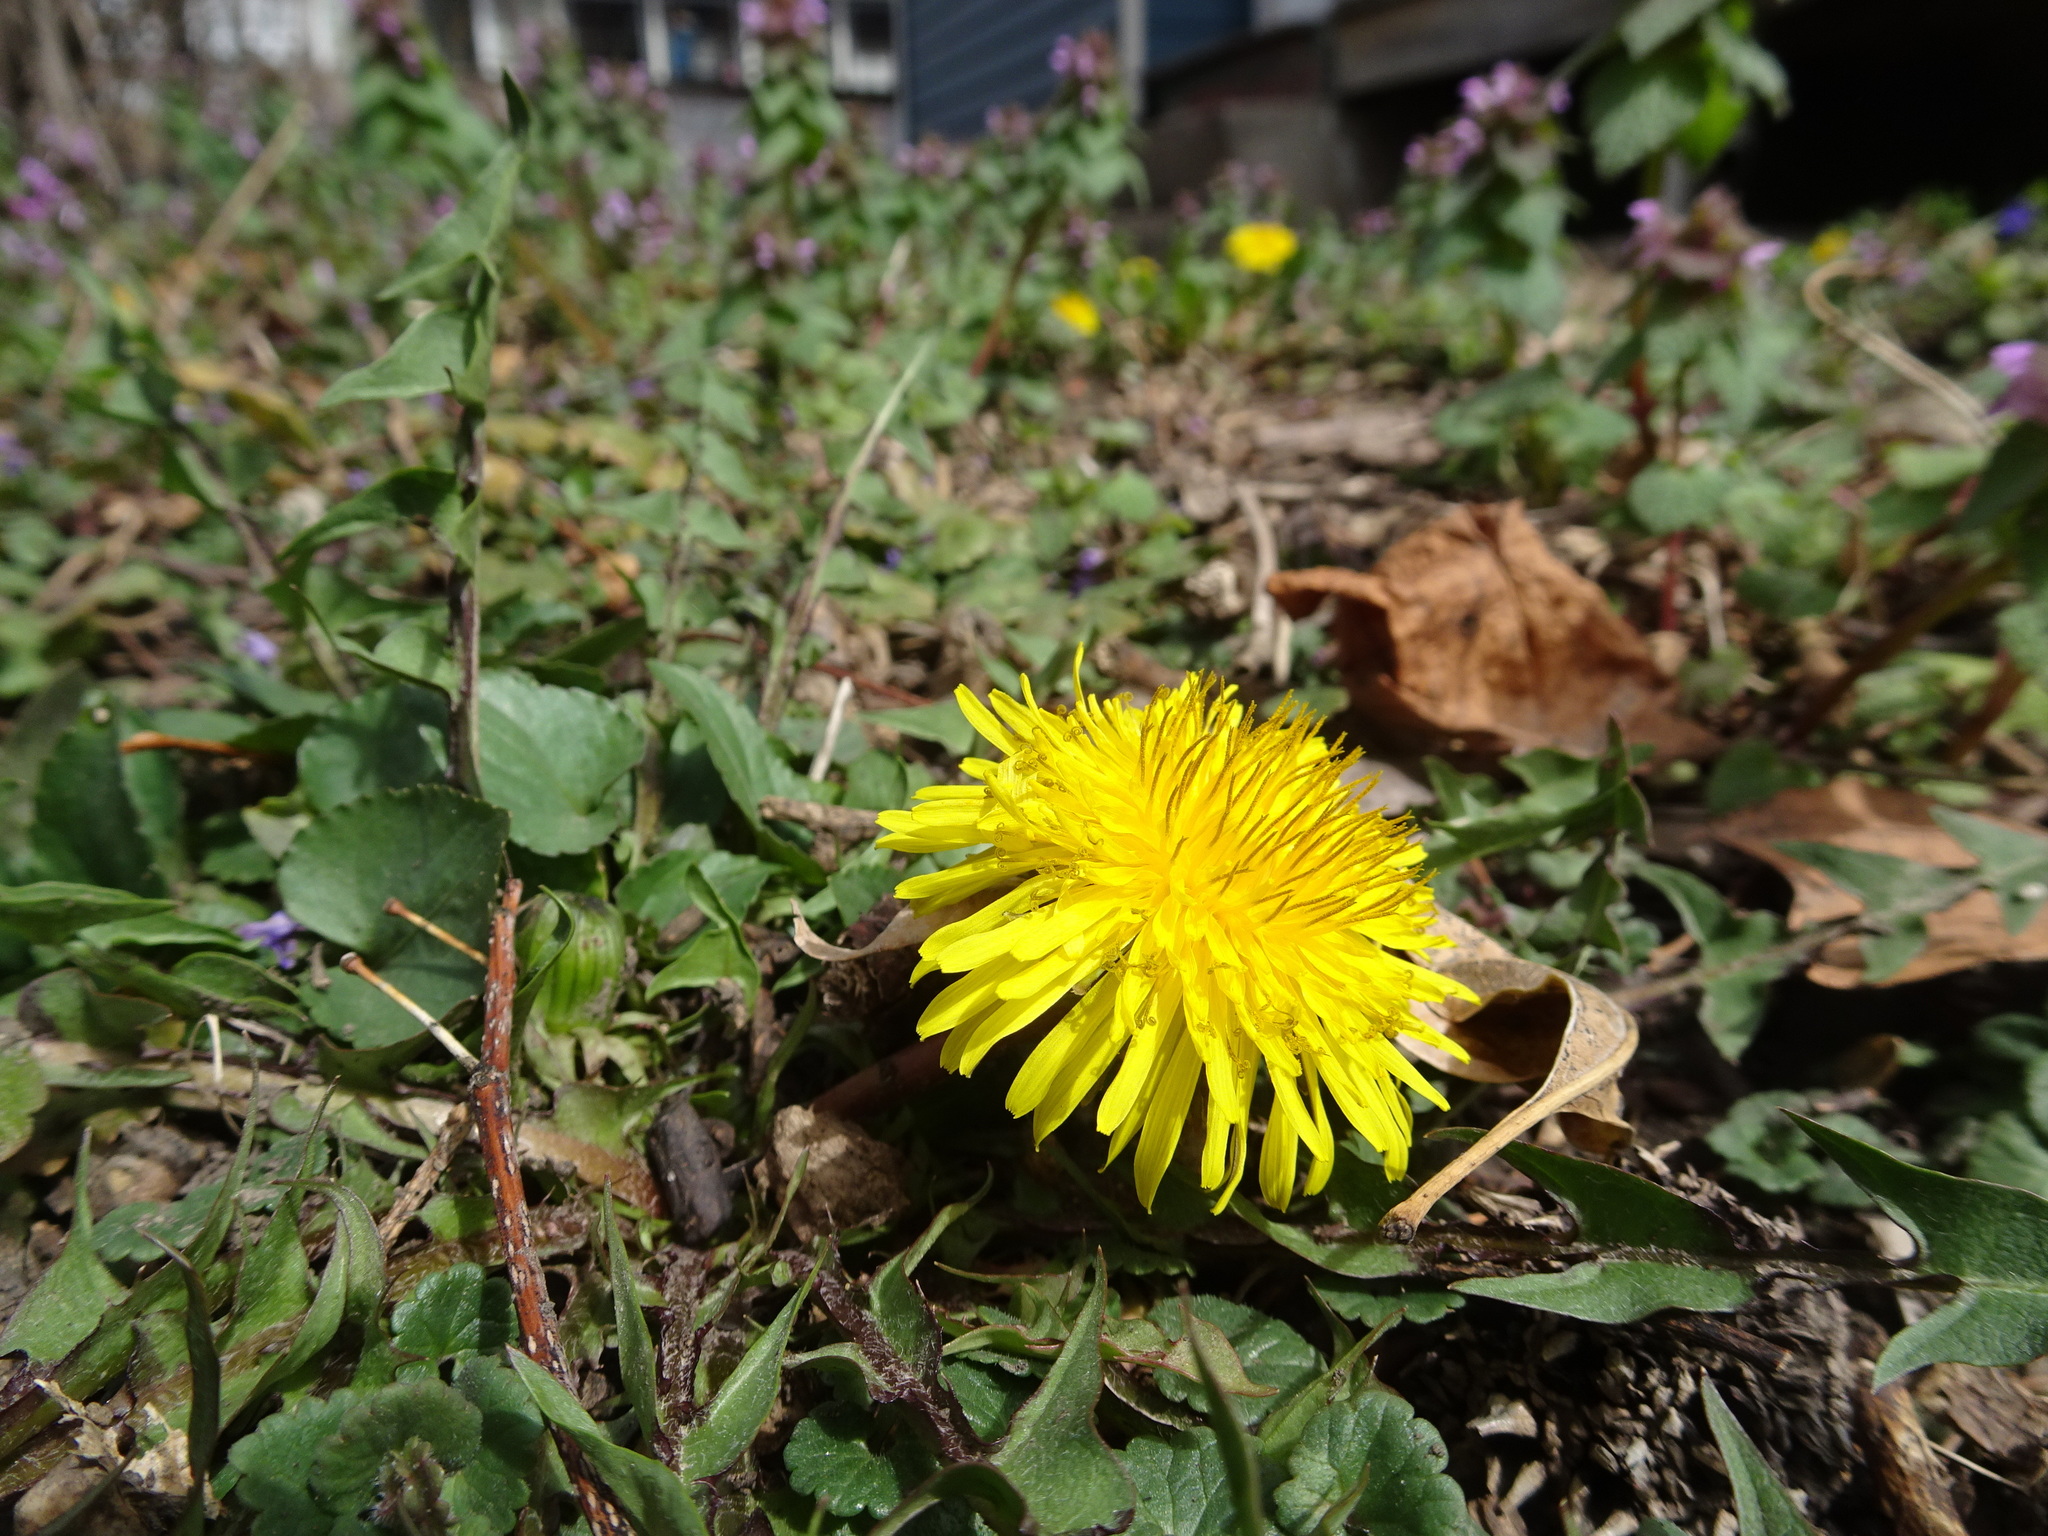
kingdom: Plantae
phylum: Tracheophyta
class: Magnoliopsida
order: Asterales
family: Asteraceae
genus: Taraxacum
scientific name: Taraxacum
